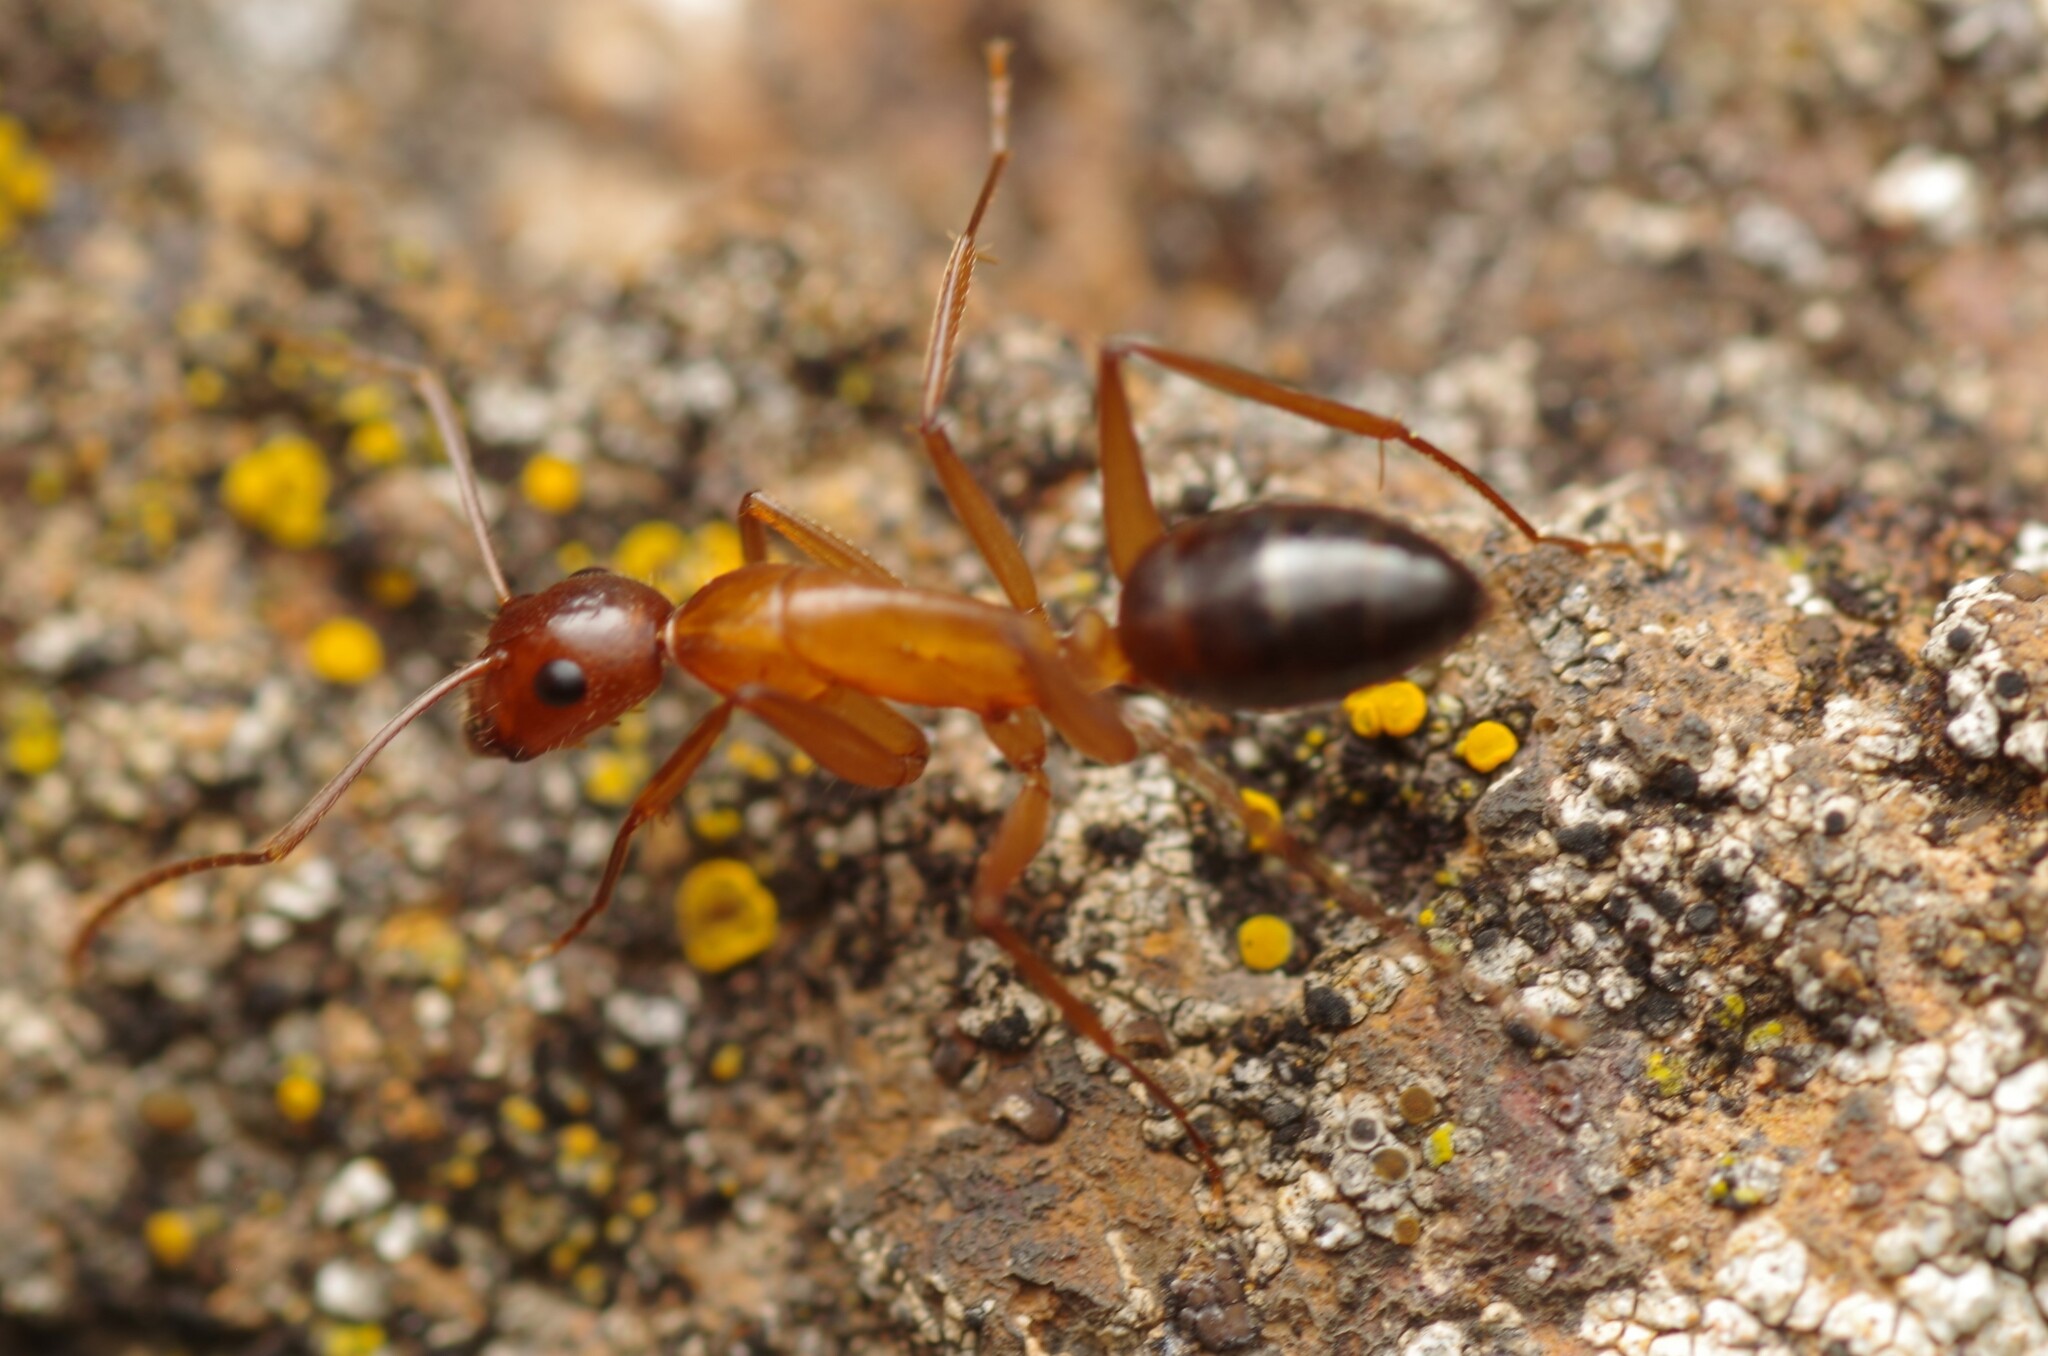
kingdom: Animalia
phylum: Arthropoda
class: Insecta
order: Hymenoptera
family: Formicidae
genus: Camponotus
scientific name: Camponotus pilicornis
